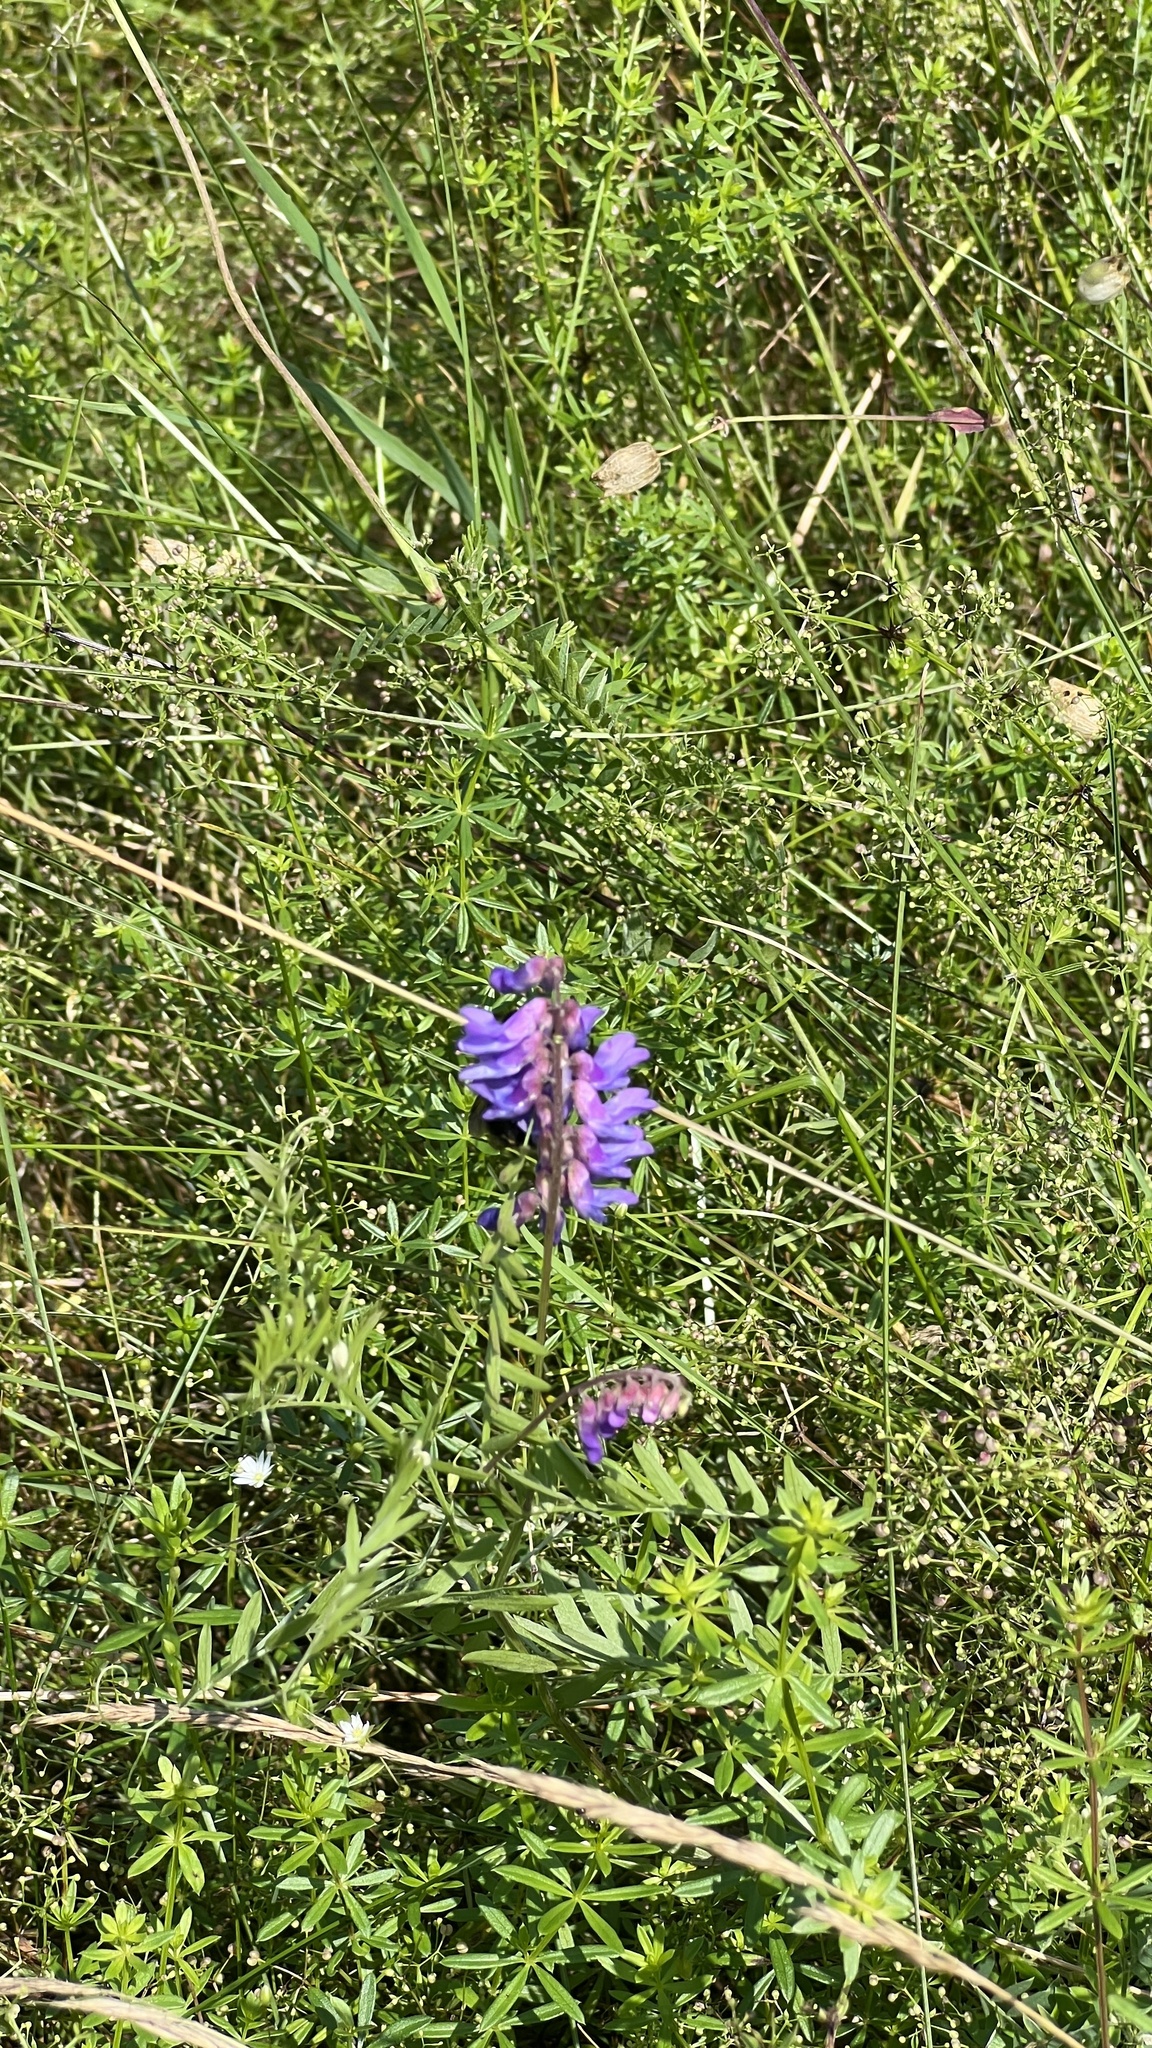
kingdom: Plantae
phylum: Tracheophyta
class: Magnoliopsida
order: Fabales
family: Fabaceae
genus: Vicia
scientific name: Vicia cracca
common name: Bird vetch
